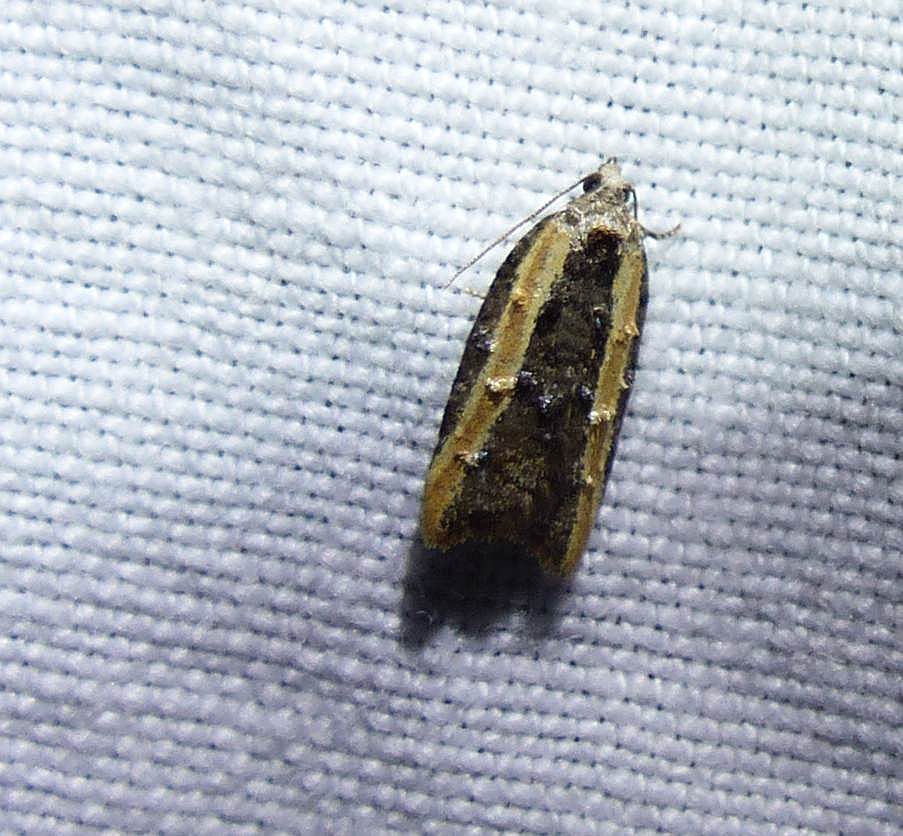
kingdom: Animalia
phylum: Arthropoda
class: Insecta
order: Lepidoptera
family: Tortricidae
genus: Acleris
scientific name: Acleris variana
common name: Eastern black-headed budworm moth
